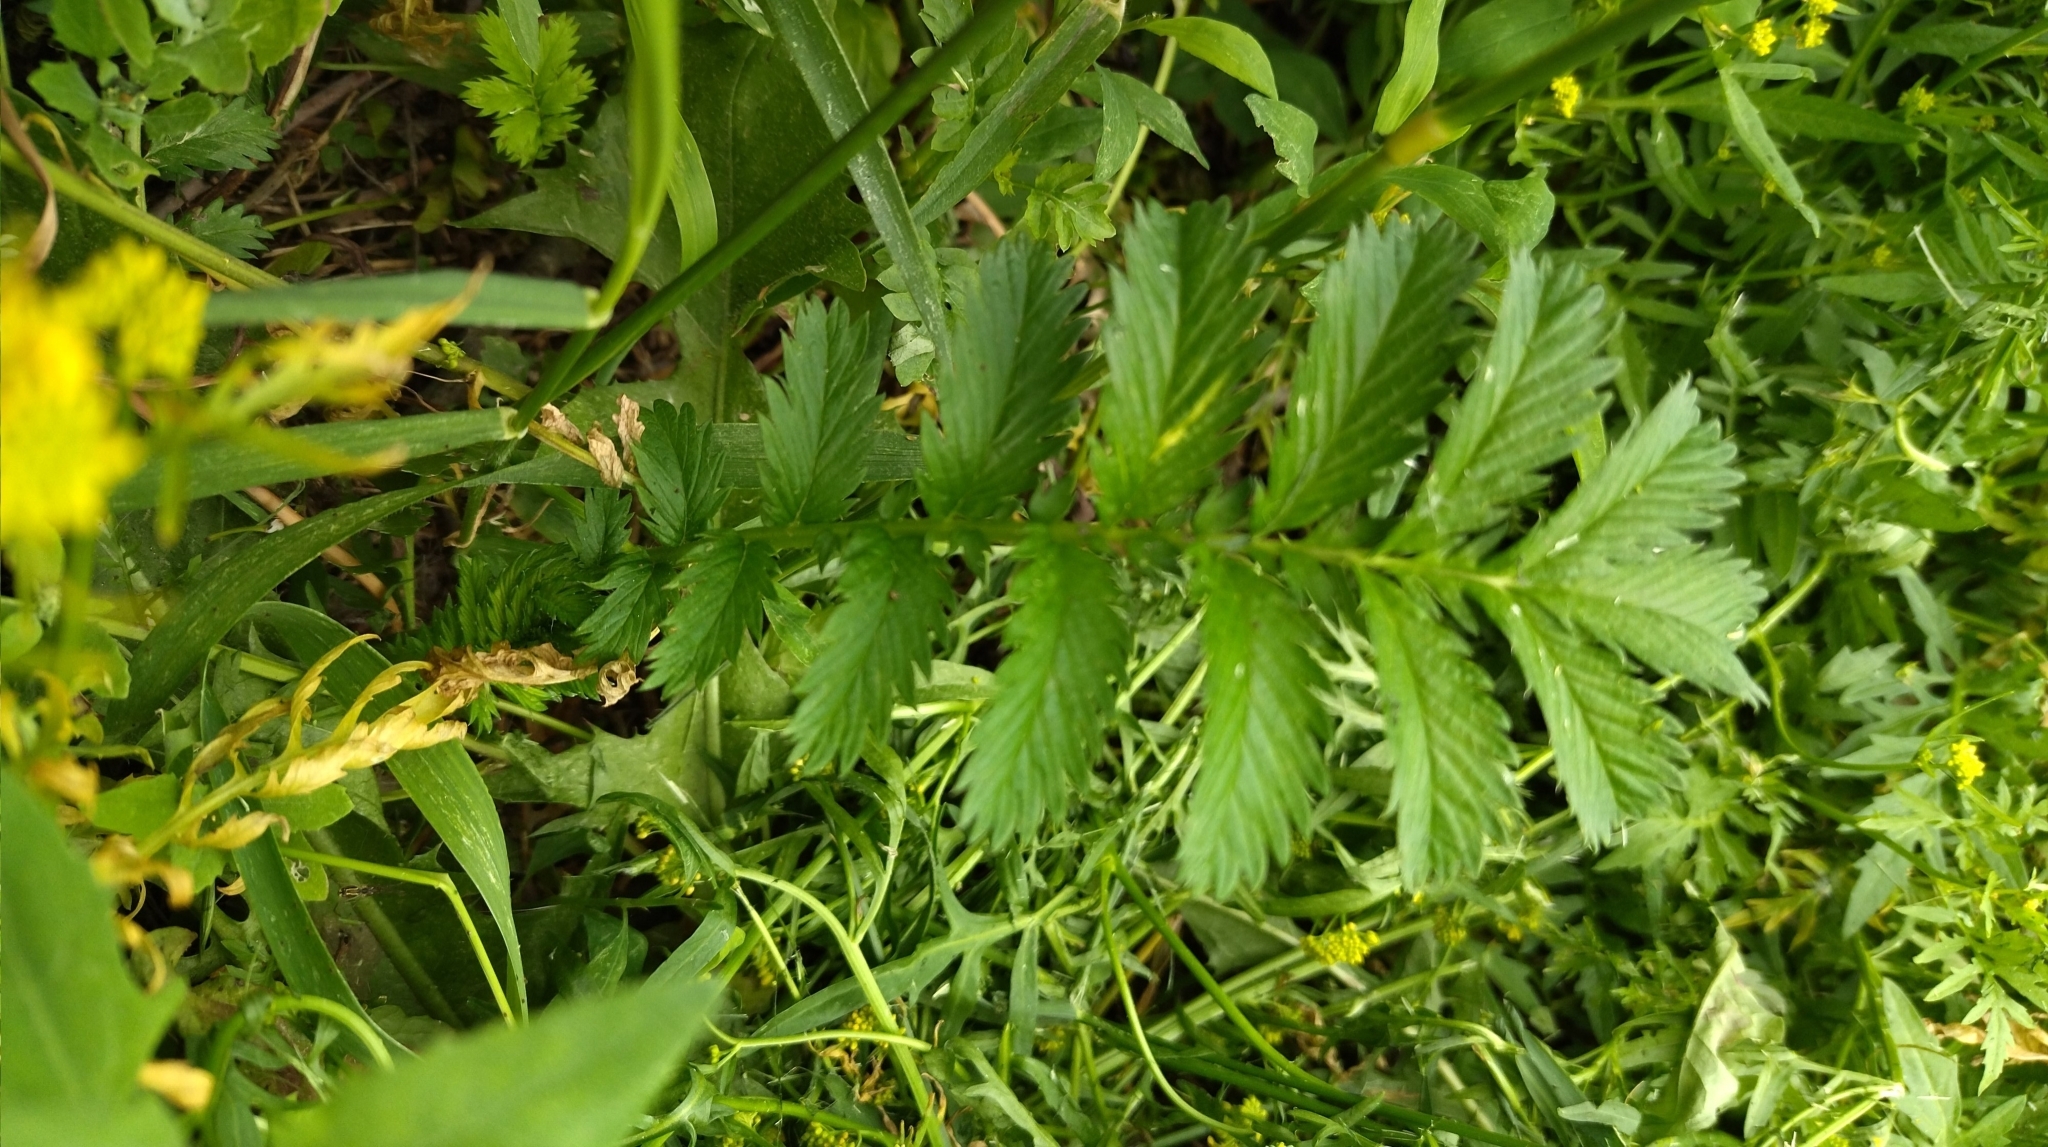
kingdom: Plantae
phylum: Tracheophyta
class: Magnoliopsida
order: Rosales
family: Rosaceae
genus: Argentina
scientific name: Argentina anserina
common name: Common silverweed
